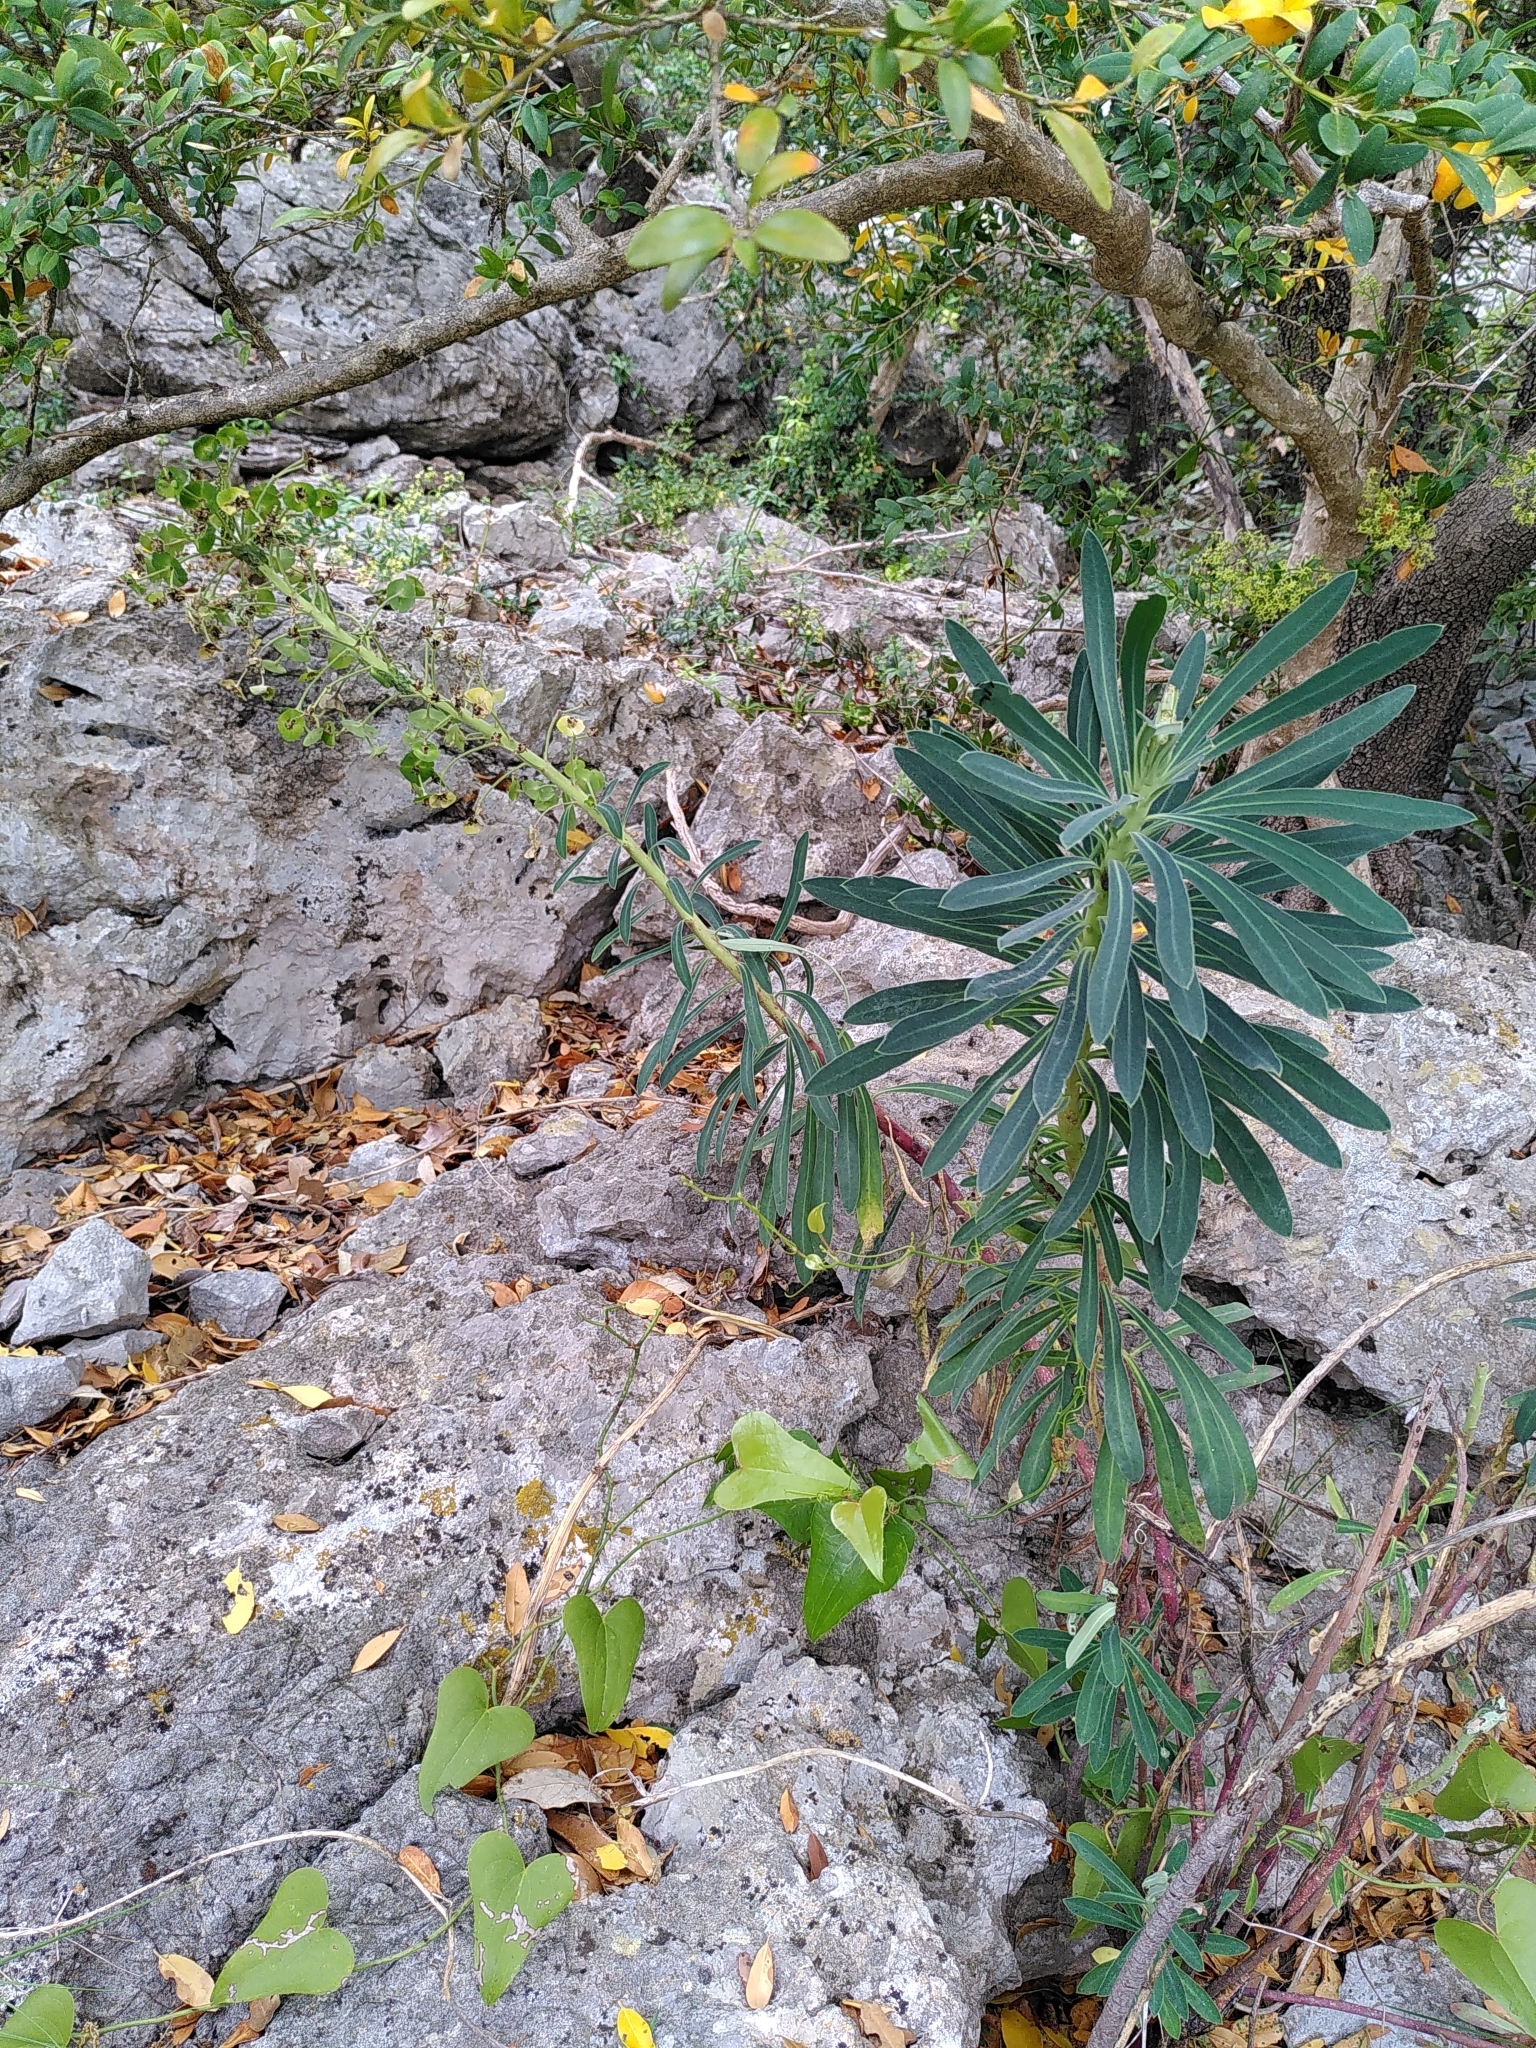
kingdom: Plantae
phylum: Tracheophyta
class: Magnoliopsida
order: Malpighiales
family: Euphorbiaceae
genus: Euphorbia
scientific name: Euphorbia characias
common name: Mediterranean spurge
